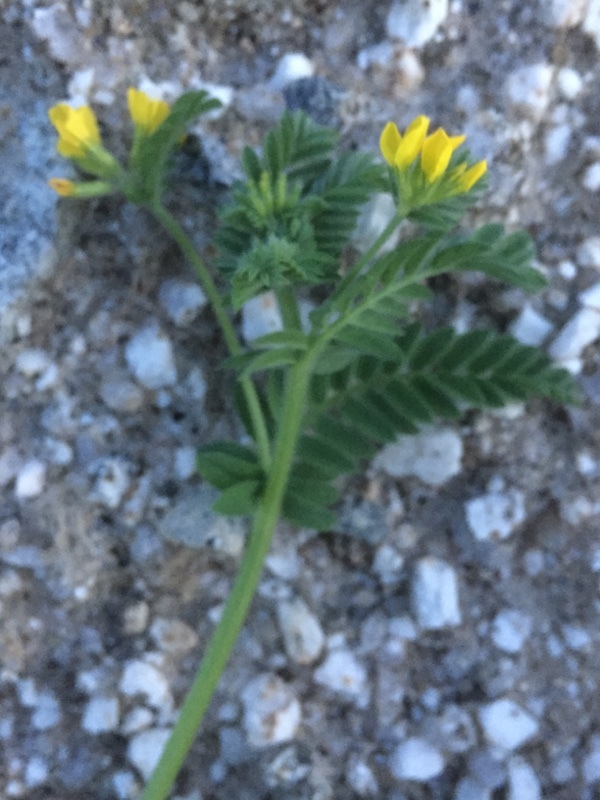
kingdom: Plantae
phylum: Tracheophyta
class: Magnoliopsida
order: Fabales
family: Fabaceae
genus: Ornithopus
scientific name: Ornithopus compressus
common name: Yellow serradella
